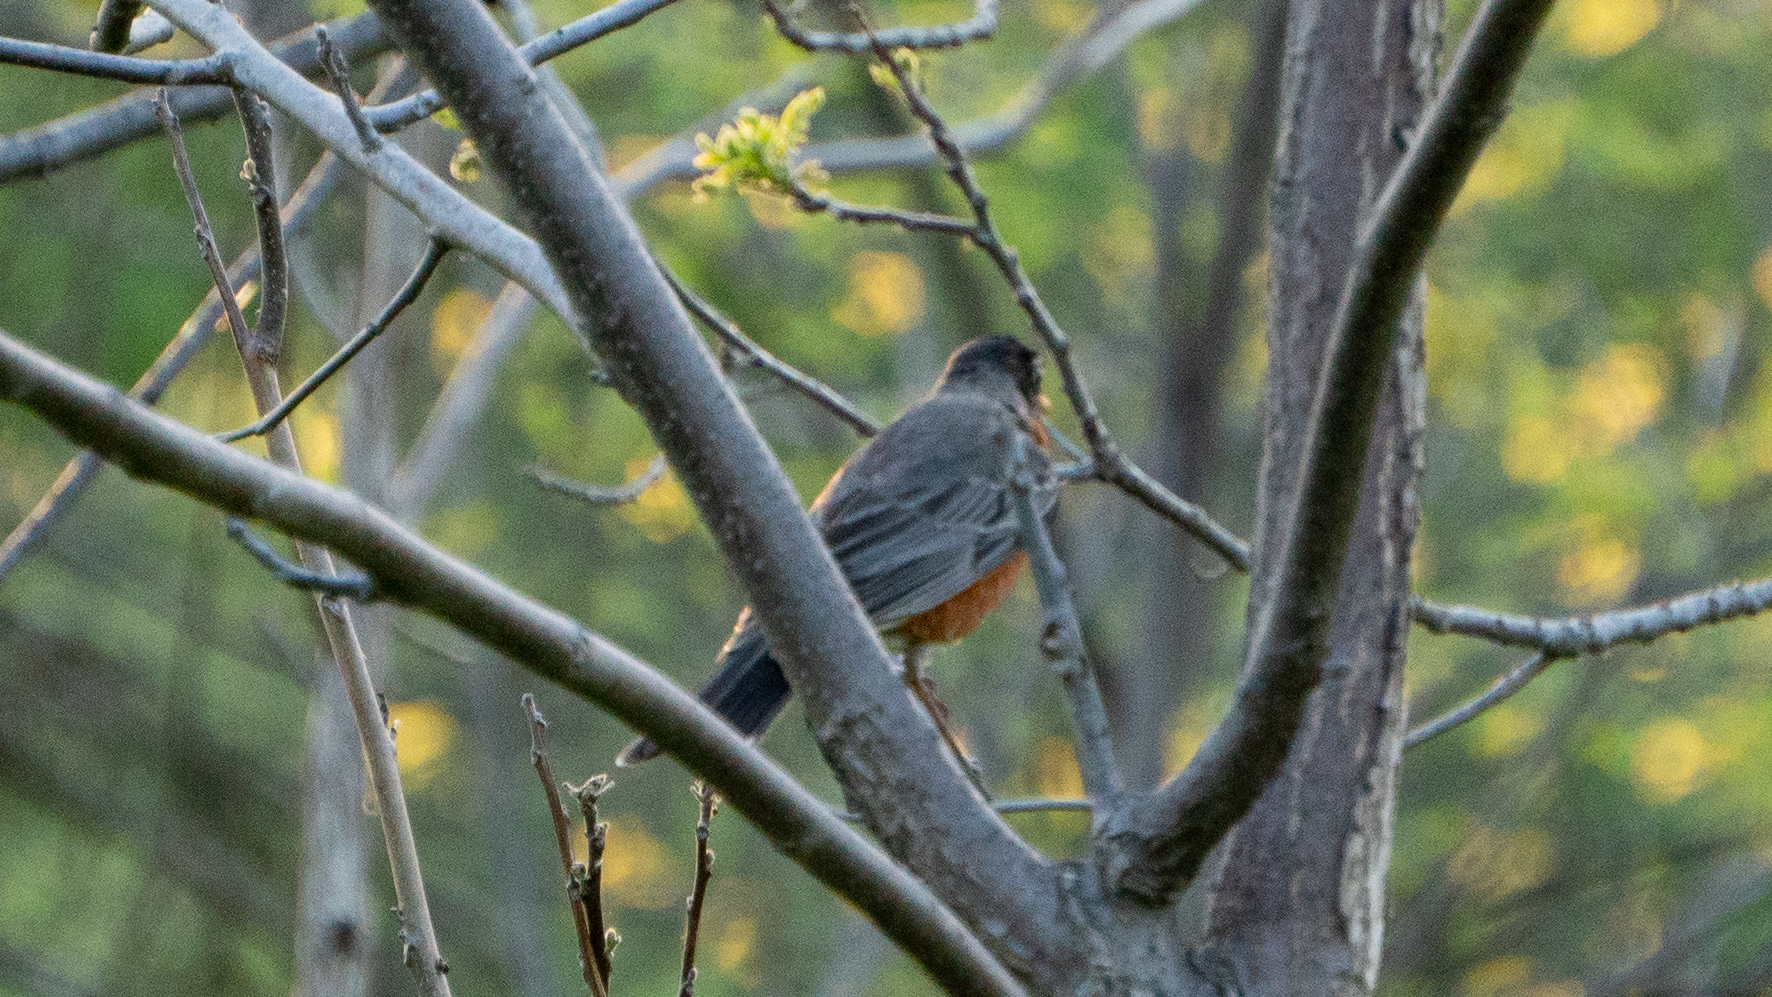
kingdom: Animalia
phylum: Chordata
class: Aves
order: Passeriformes
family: Turdidae
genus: Turdus
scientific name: Turdus migratorius
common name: American robin
